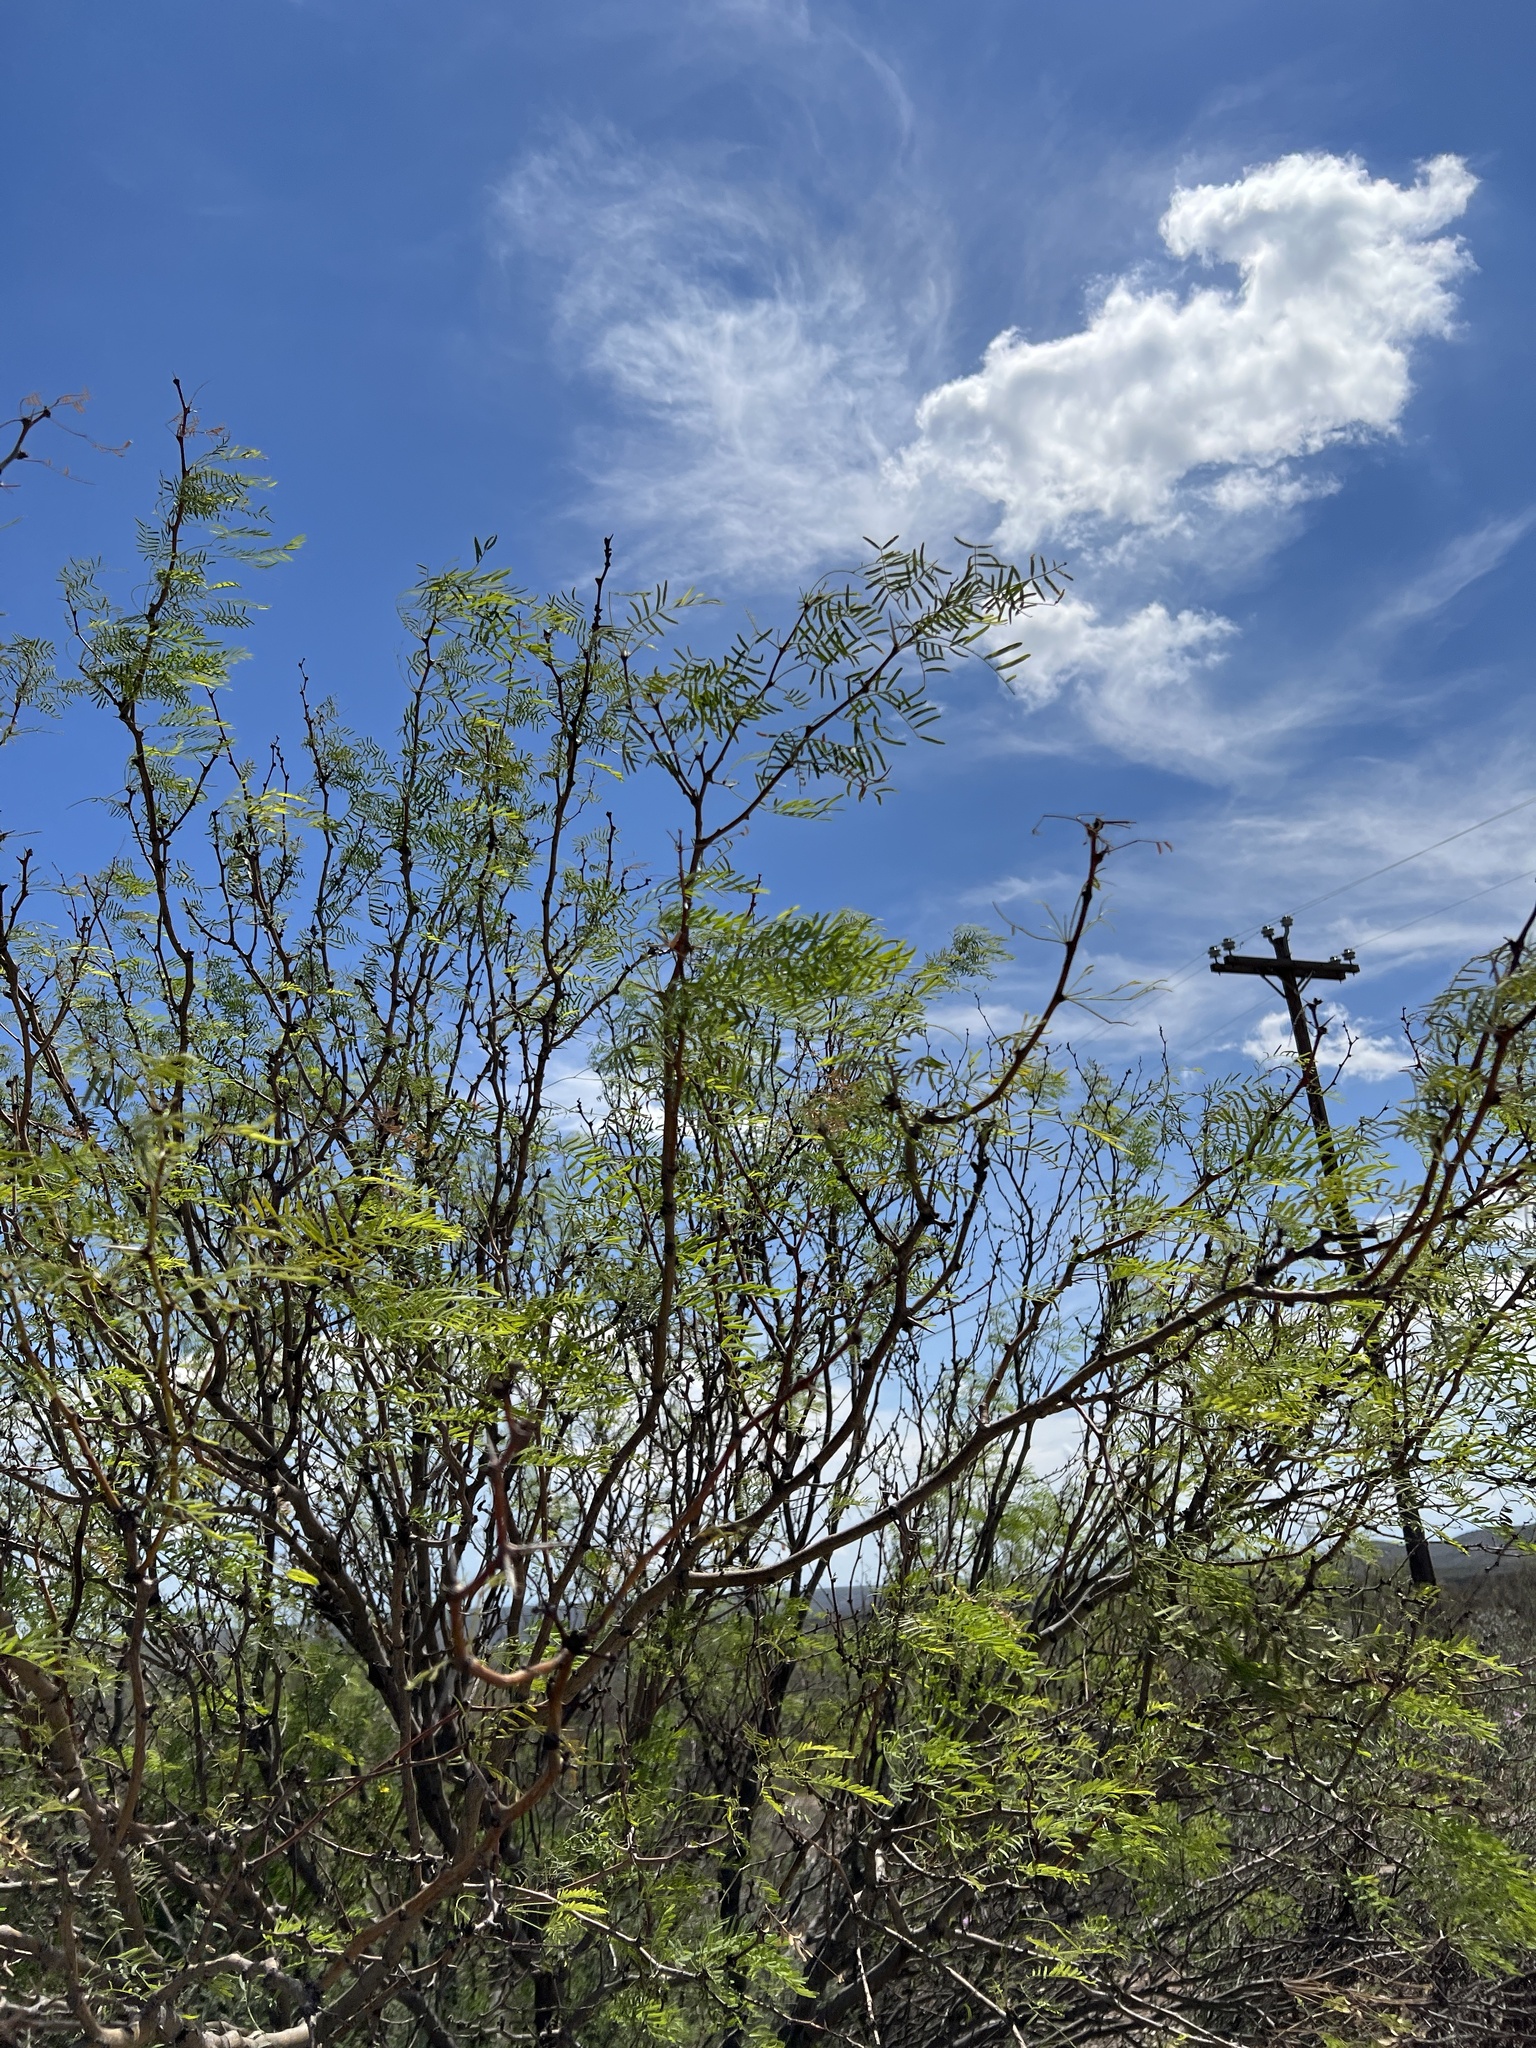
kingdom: Plantae
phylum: Tracheophyta
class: Magnoliopsida
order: Fabales
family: Fabaceae
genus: Prosopis
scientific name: Prosopis glandulosa
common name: Honey mesquite
